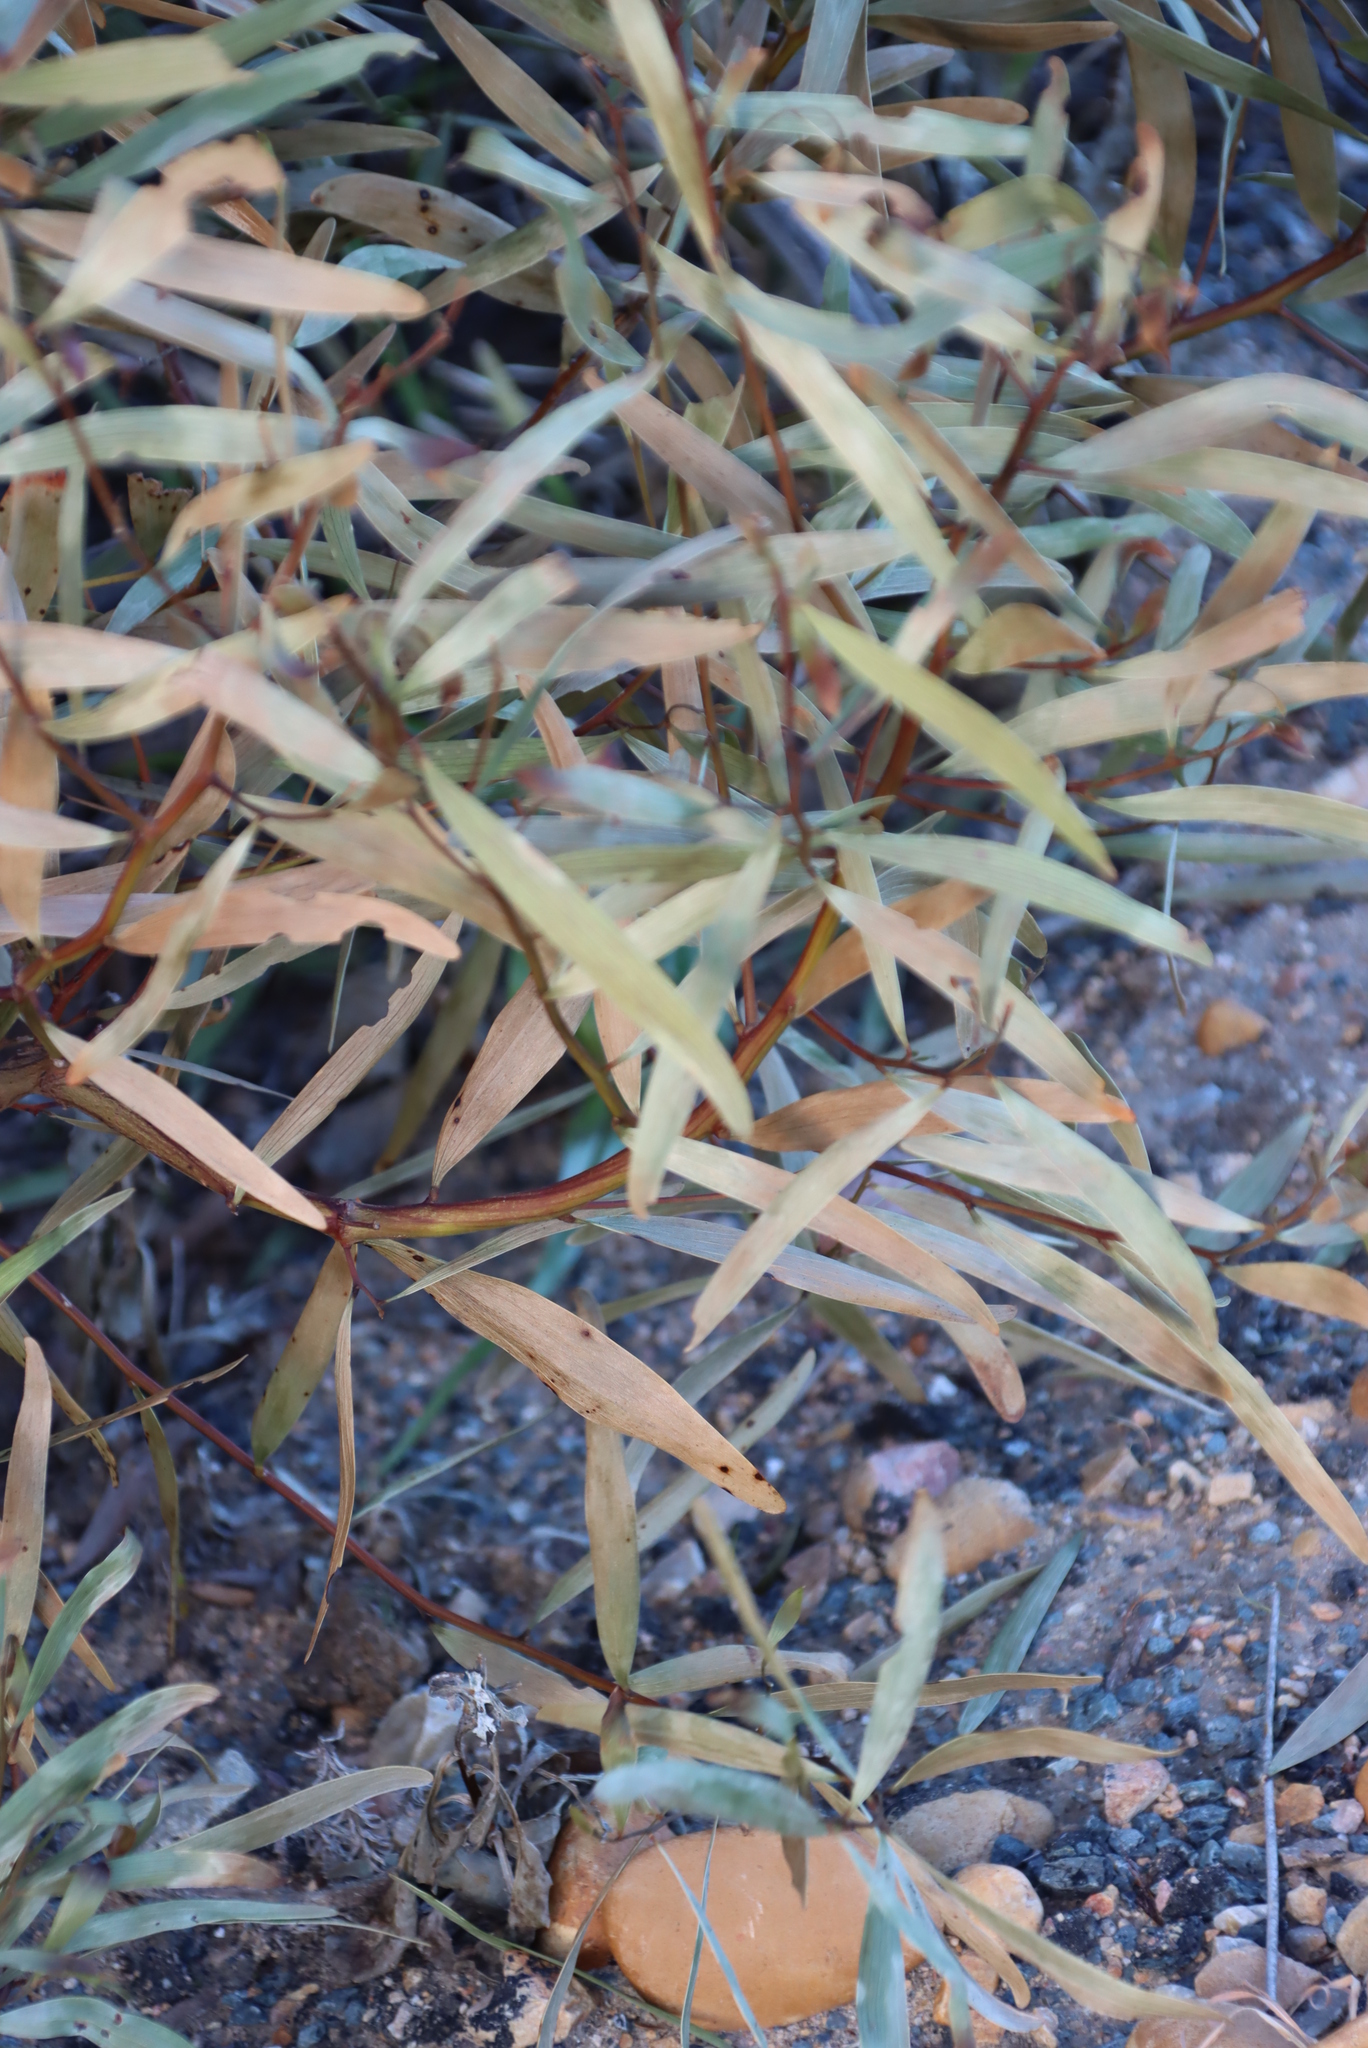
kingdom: Plantae
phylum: Tracheophyta
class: Magnoliopsida
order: Proteales
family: Proteaceae
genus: Hakea
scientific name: Hakea salicifolia
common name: Willow hakea
